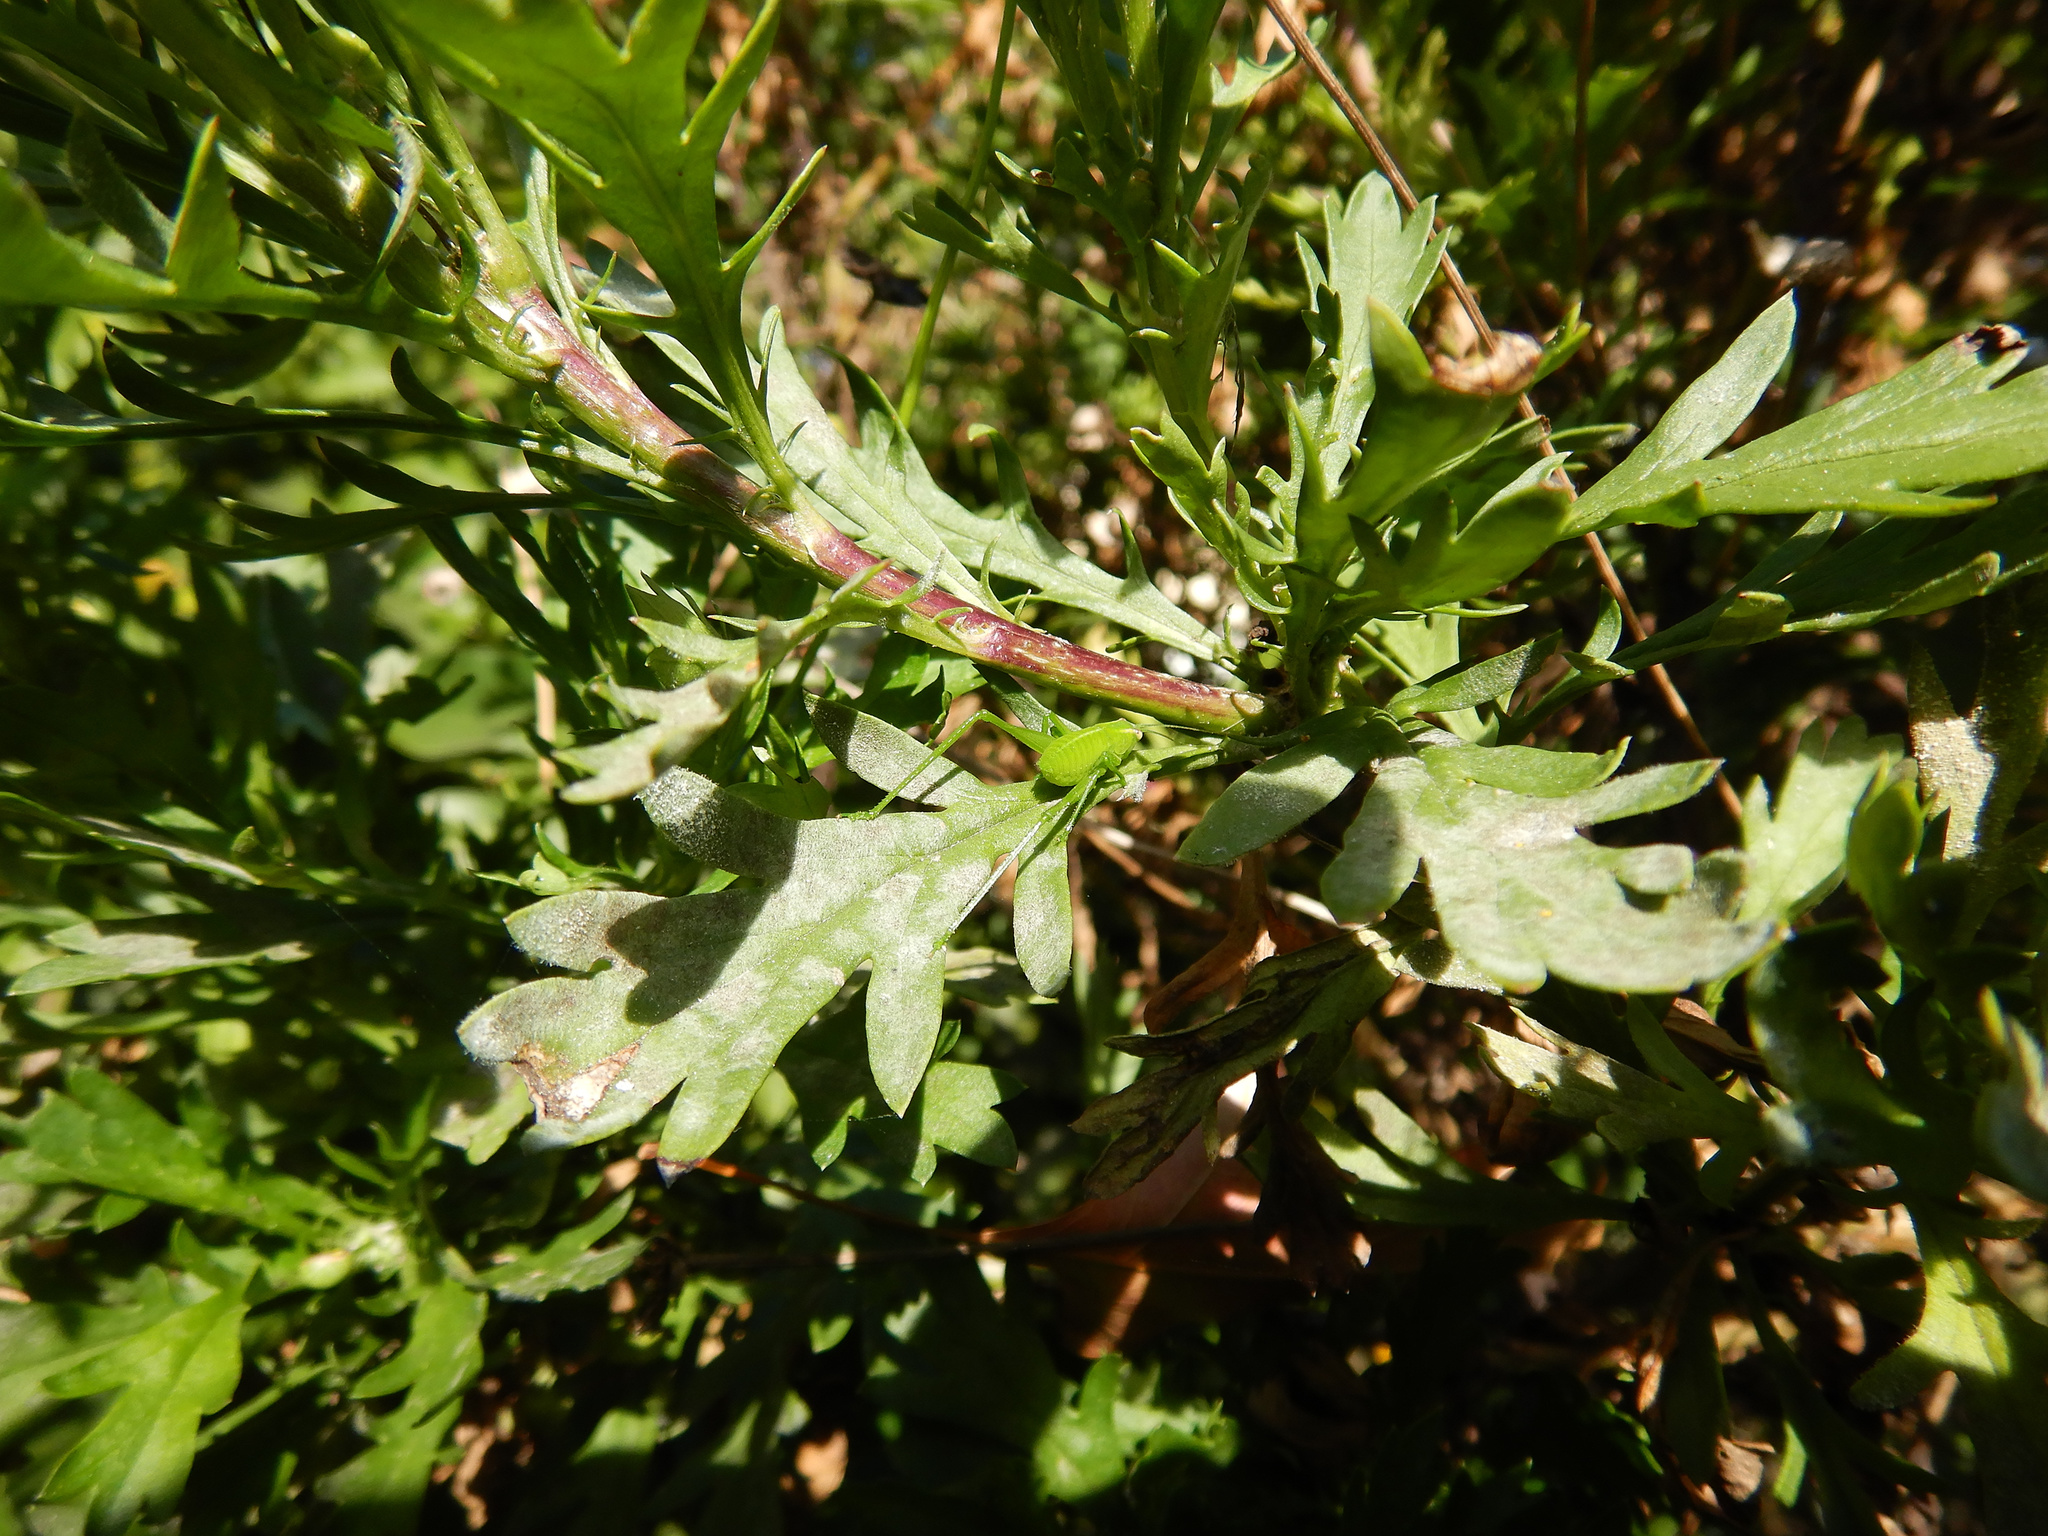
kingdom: Animalia
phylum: Arthropoda
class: Insecta
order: Orthoptera
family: Tettigoniidae
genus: Caedicia
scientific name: Caedicia simplex
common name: Common garden katydid
